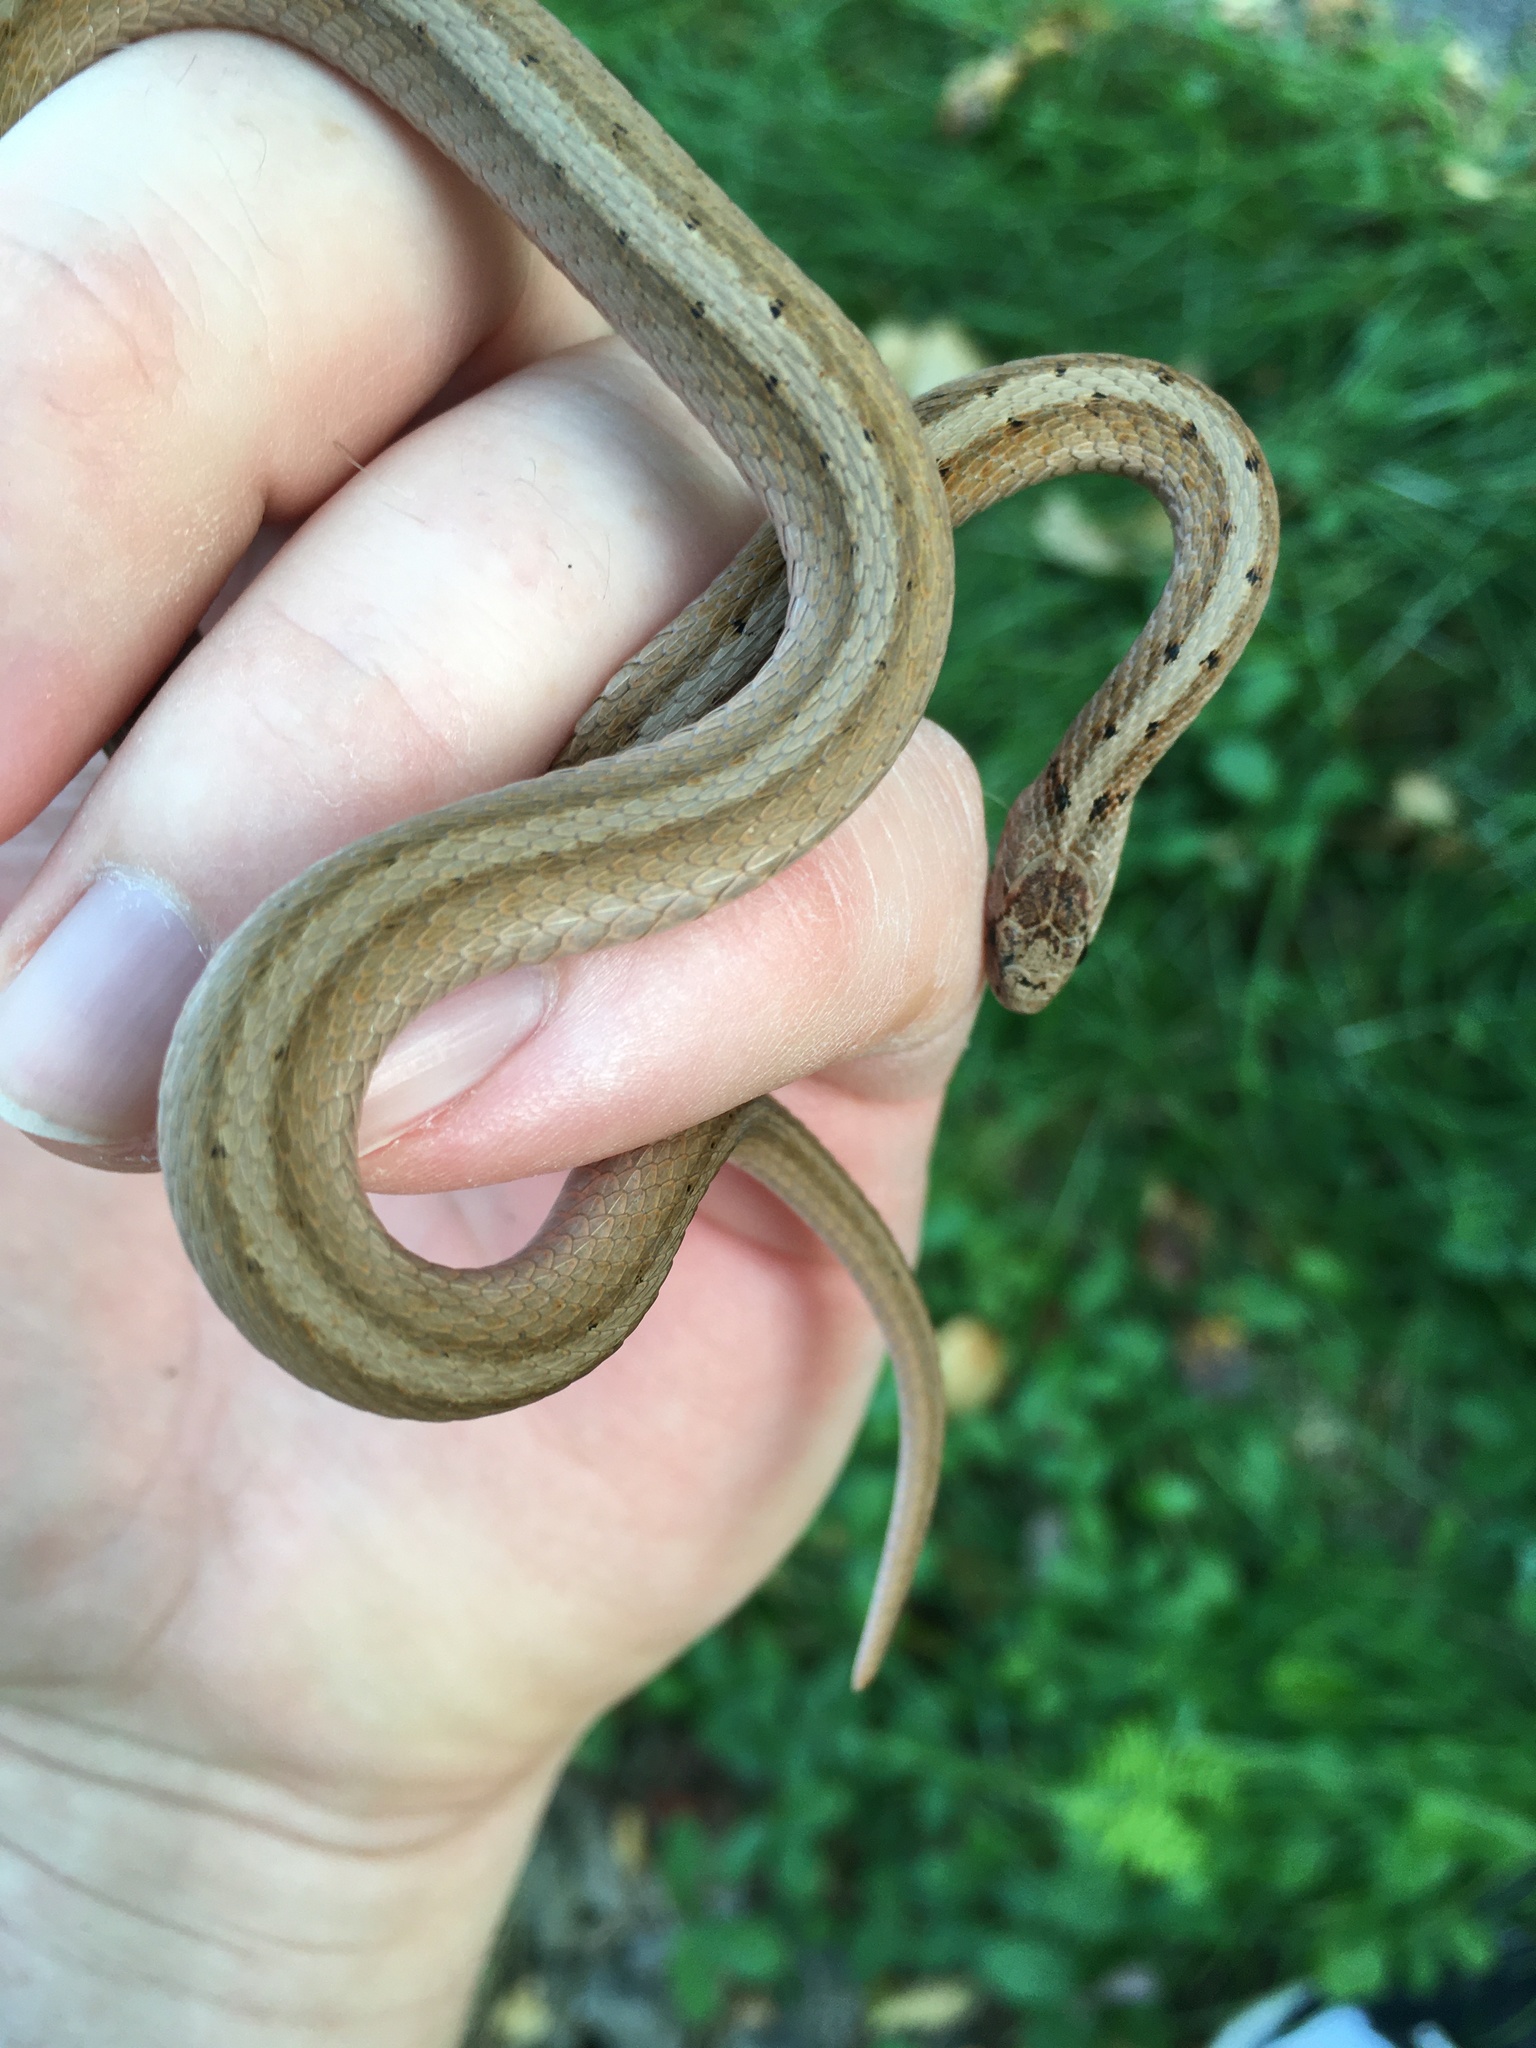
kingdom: Animalia
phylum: Chordata
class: Squamata
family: Colubridae
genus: Storeria
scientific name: Storeria dekayi
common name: (dekay’s) brown snake
